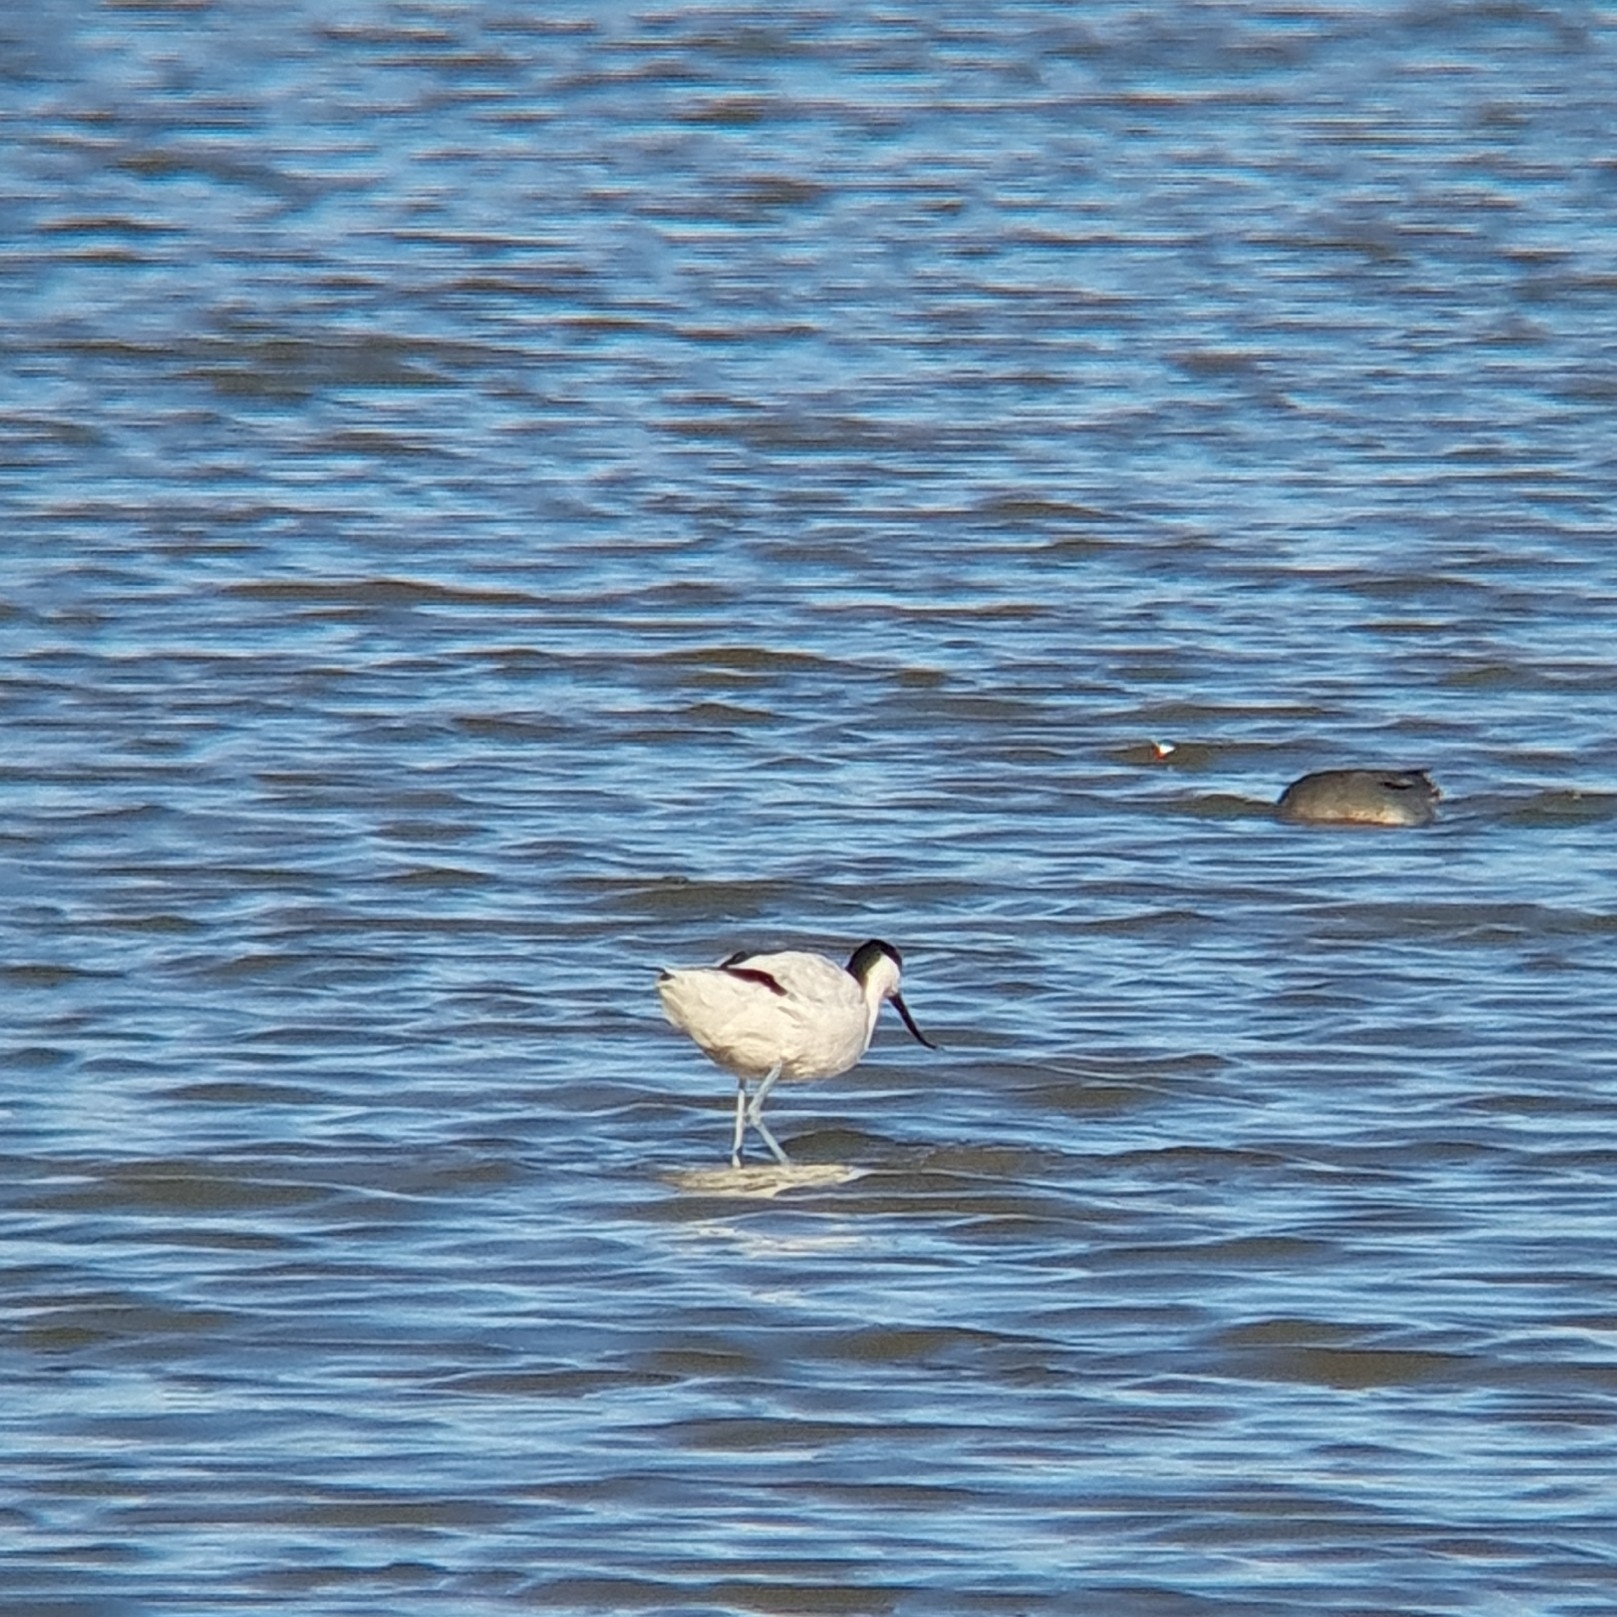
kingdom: Animalia
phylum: Chordata
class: Aves
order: Charadriiformes
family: Recurvirostridae
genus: Recurvirostra
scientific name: Recurvirostra avosetta
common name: Pied avocet
